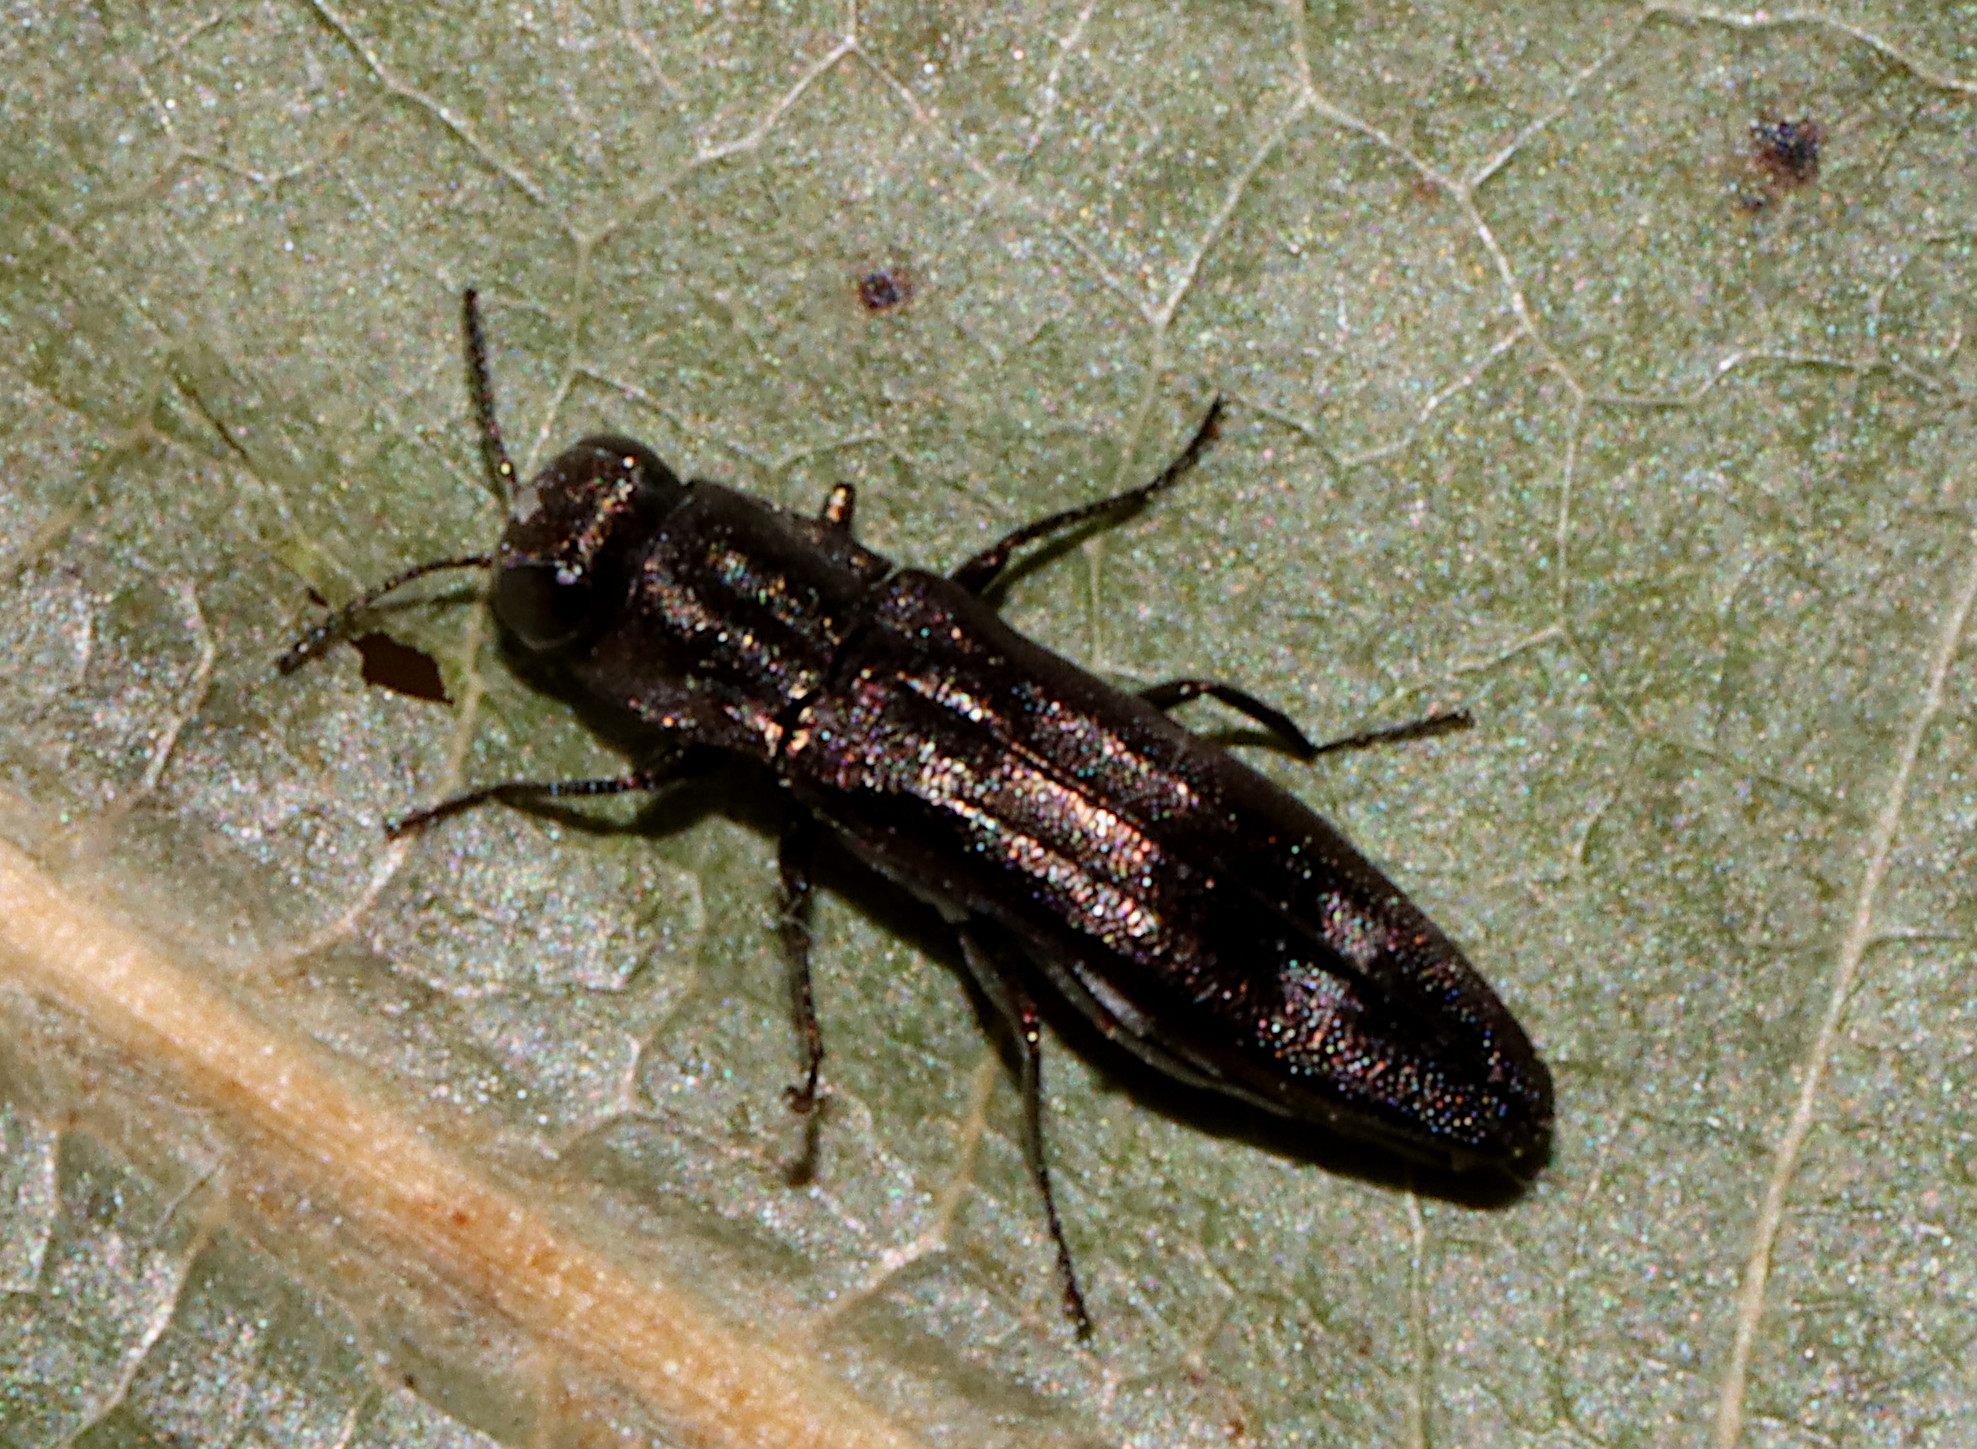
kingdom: Animalia
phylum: Arthropoda
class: Insecta
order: Coleoptera
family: Buprestidae
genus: Agrilus
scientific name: Agrilus lecontei
